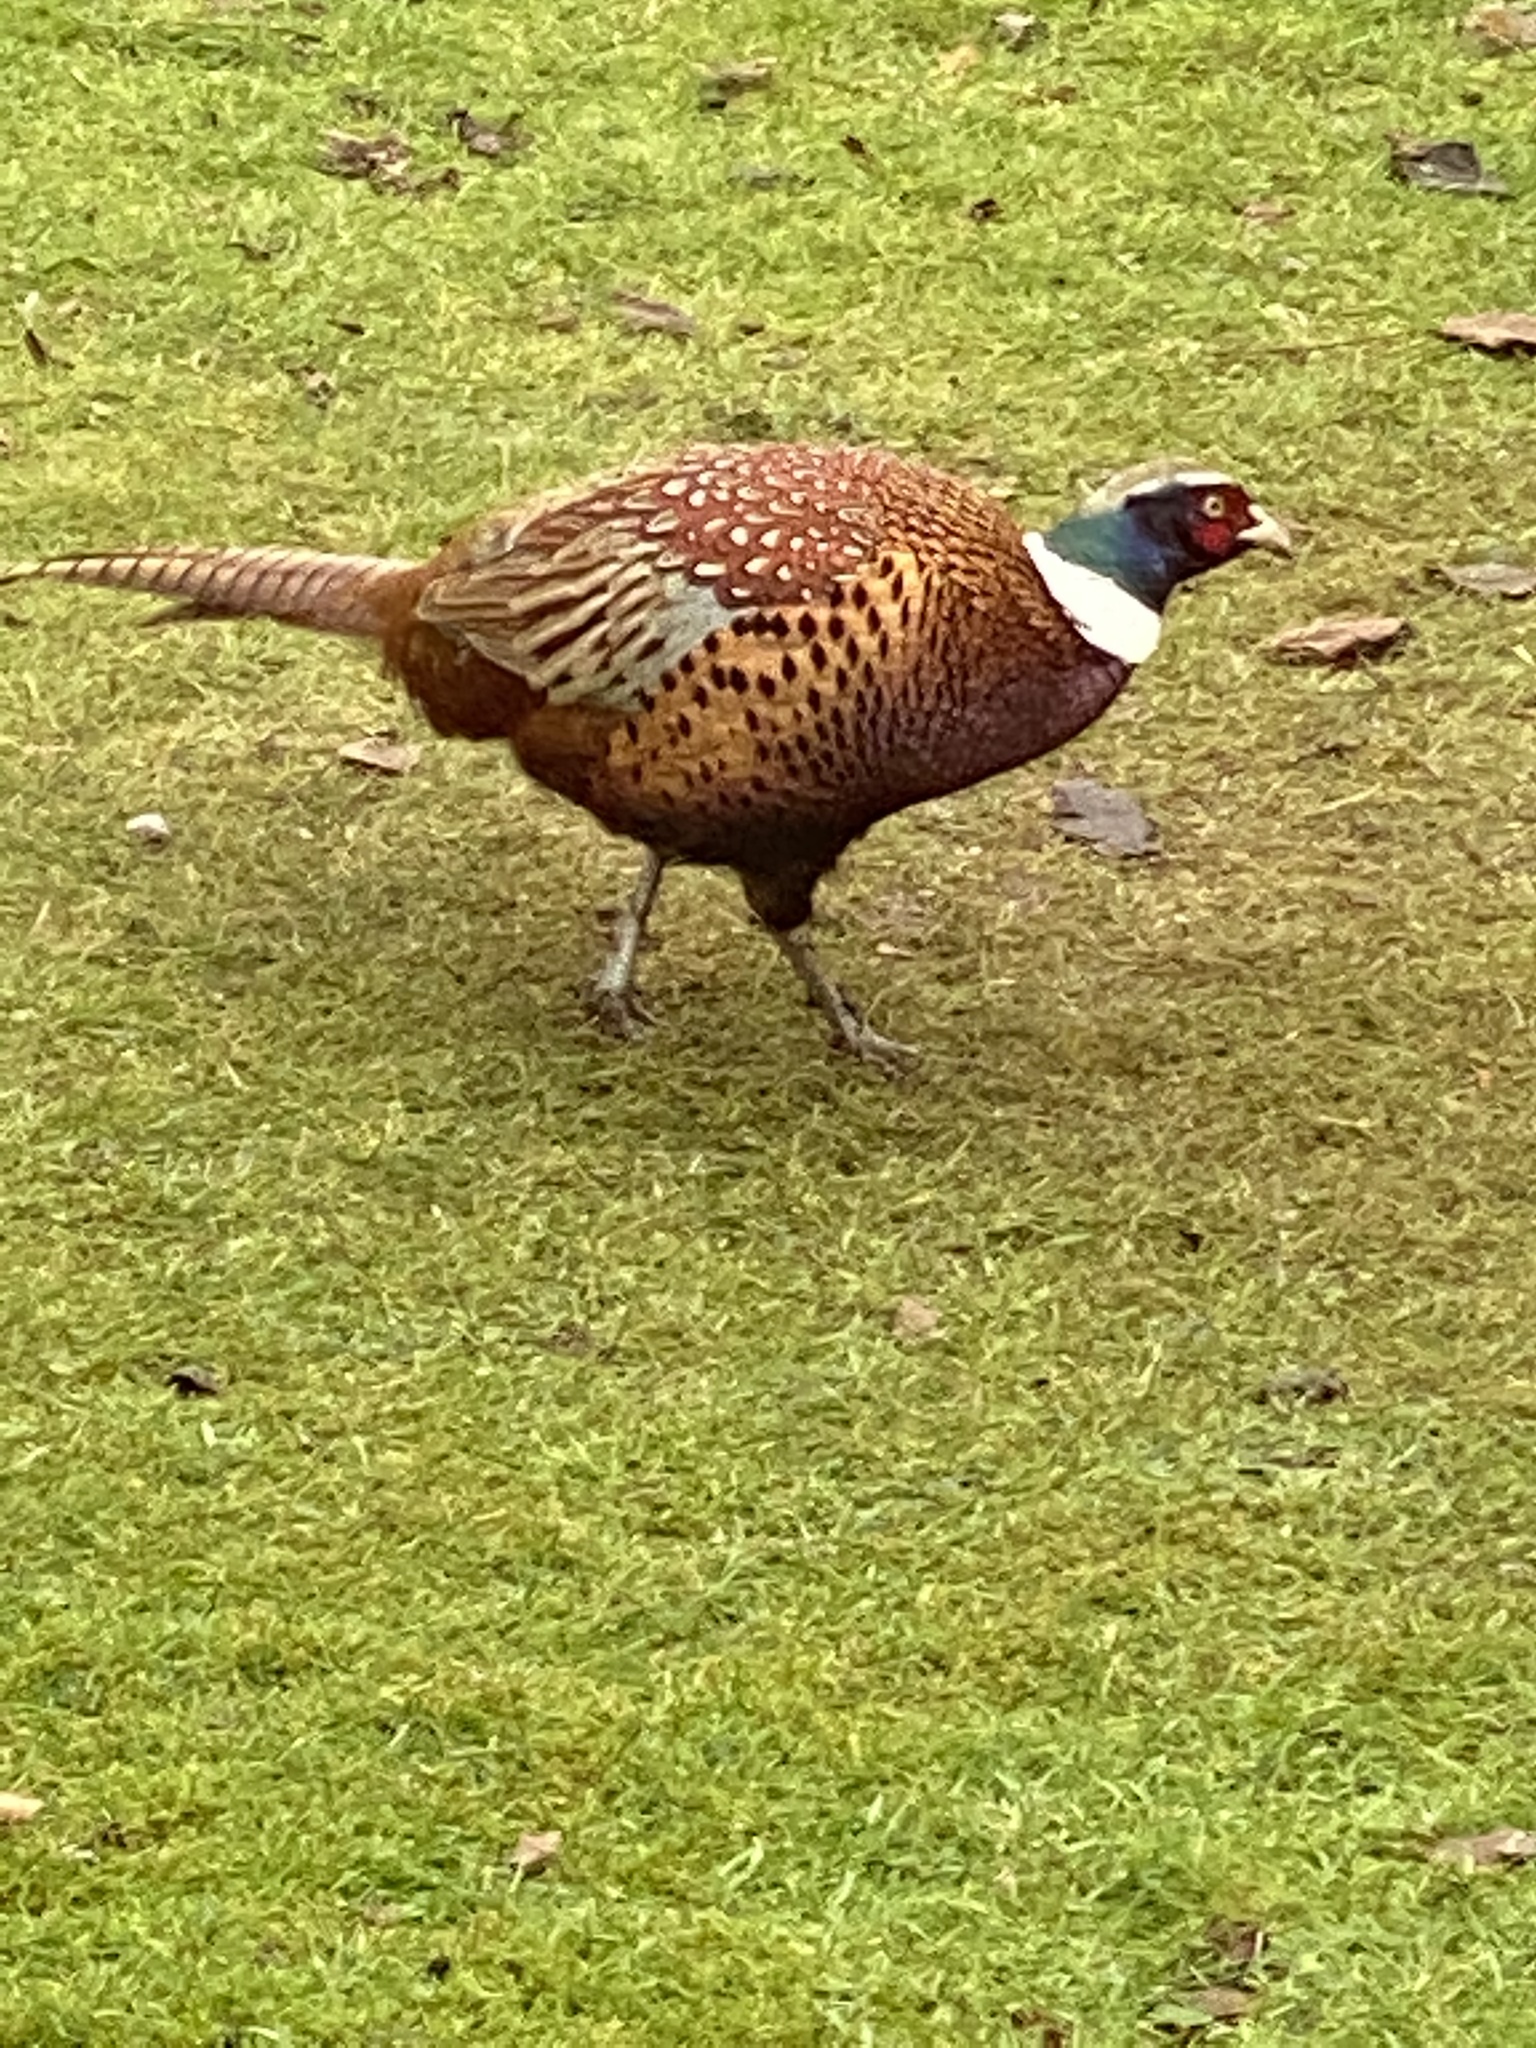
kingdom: Animalia
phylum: Chordata
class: Aves
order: Galliformes
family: Phasianidae
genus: Phasianus
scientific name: Phasianus colchicus
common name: Common pheasant
